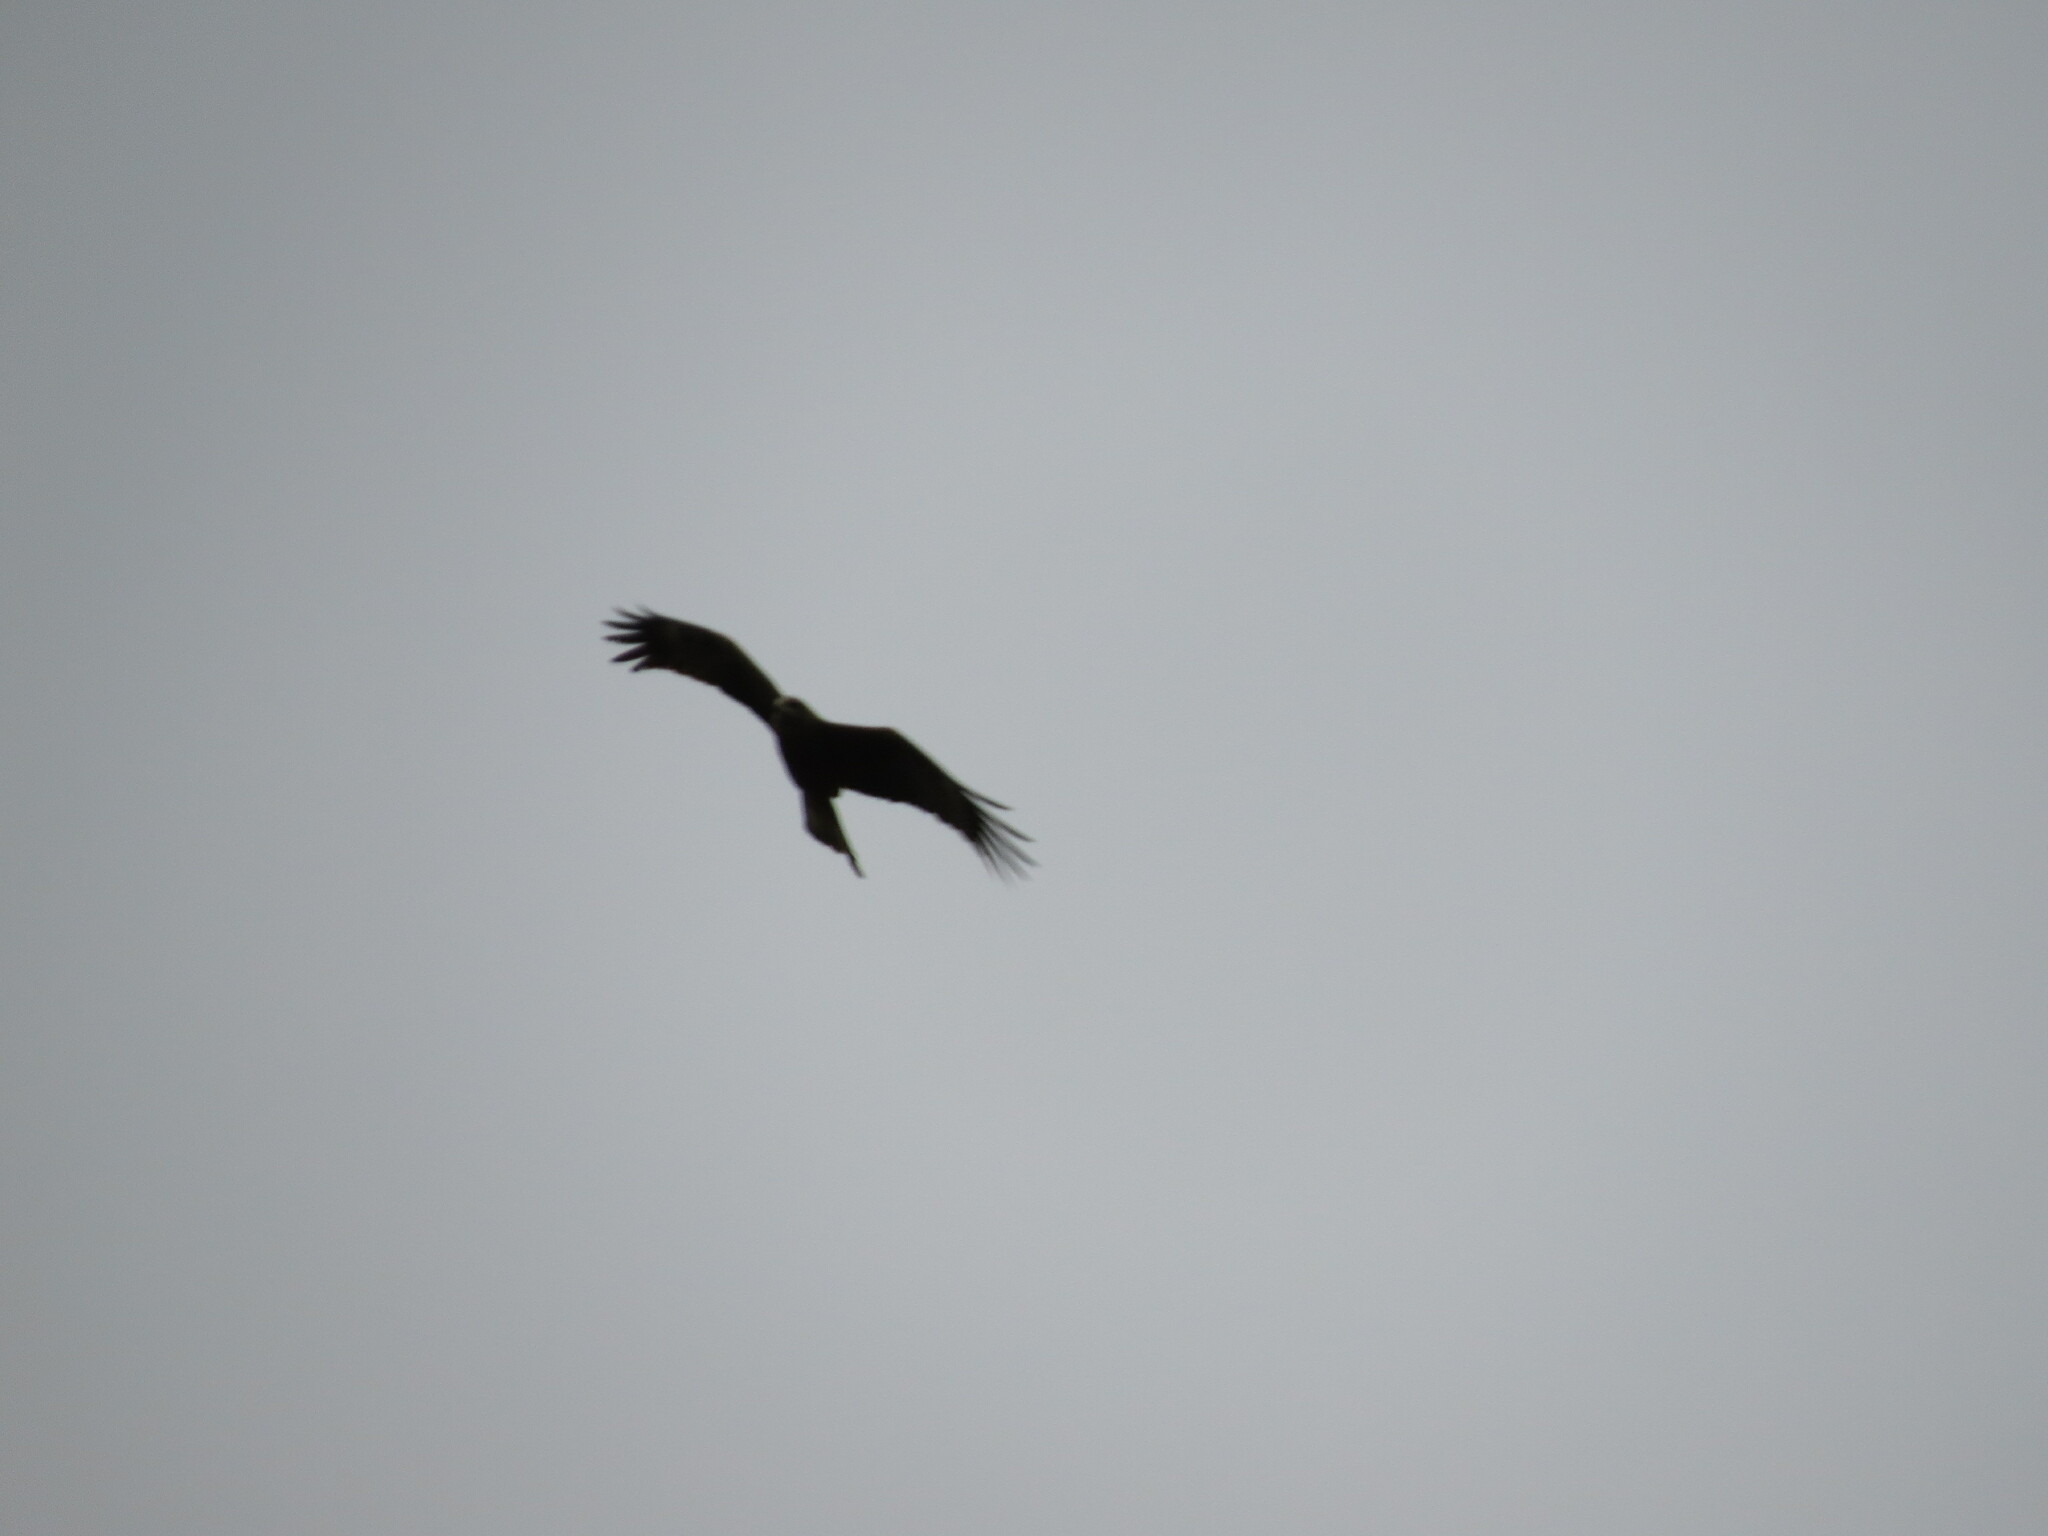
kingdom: Animalia
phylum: Chordata
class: Aves
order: Accipitriformes
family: Accipitridae
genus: Milvus
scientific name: Milvus migrans
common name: Black kite
